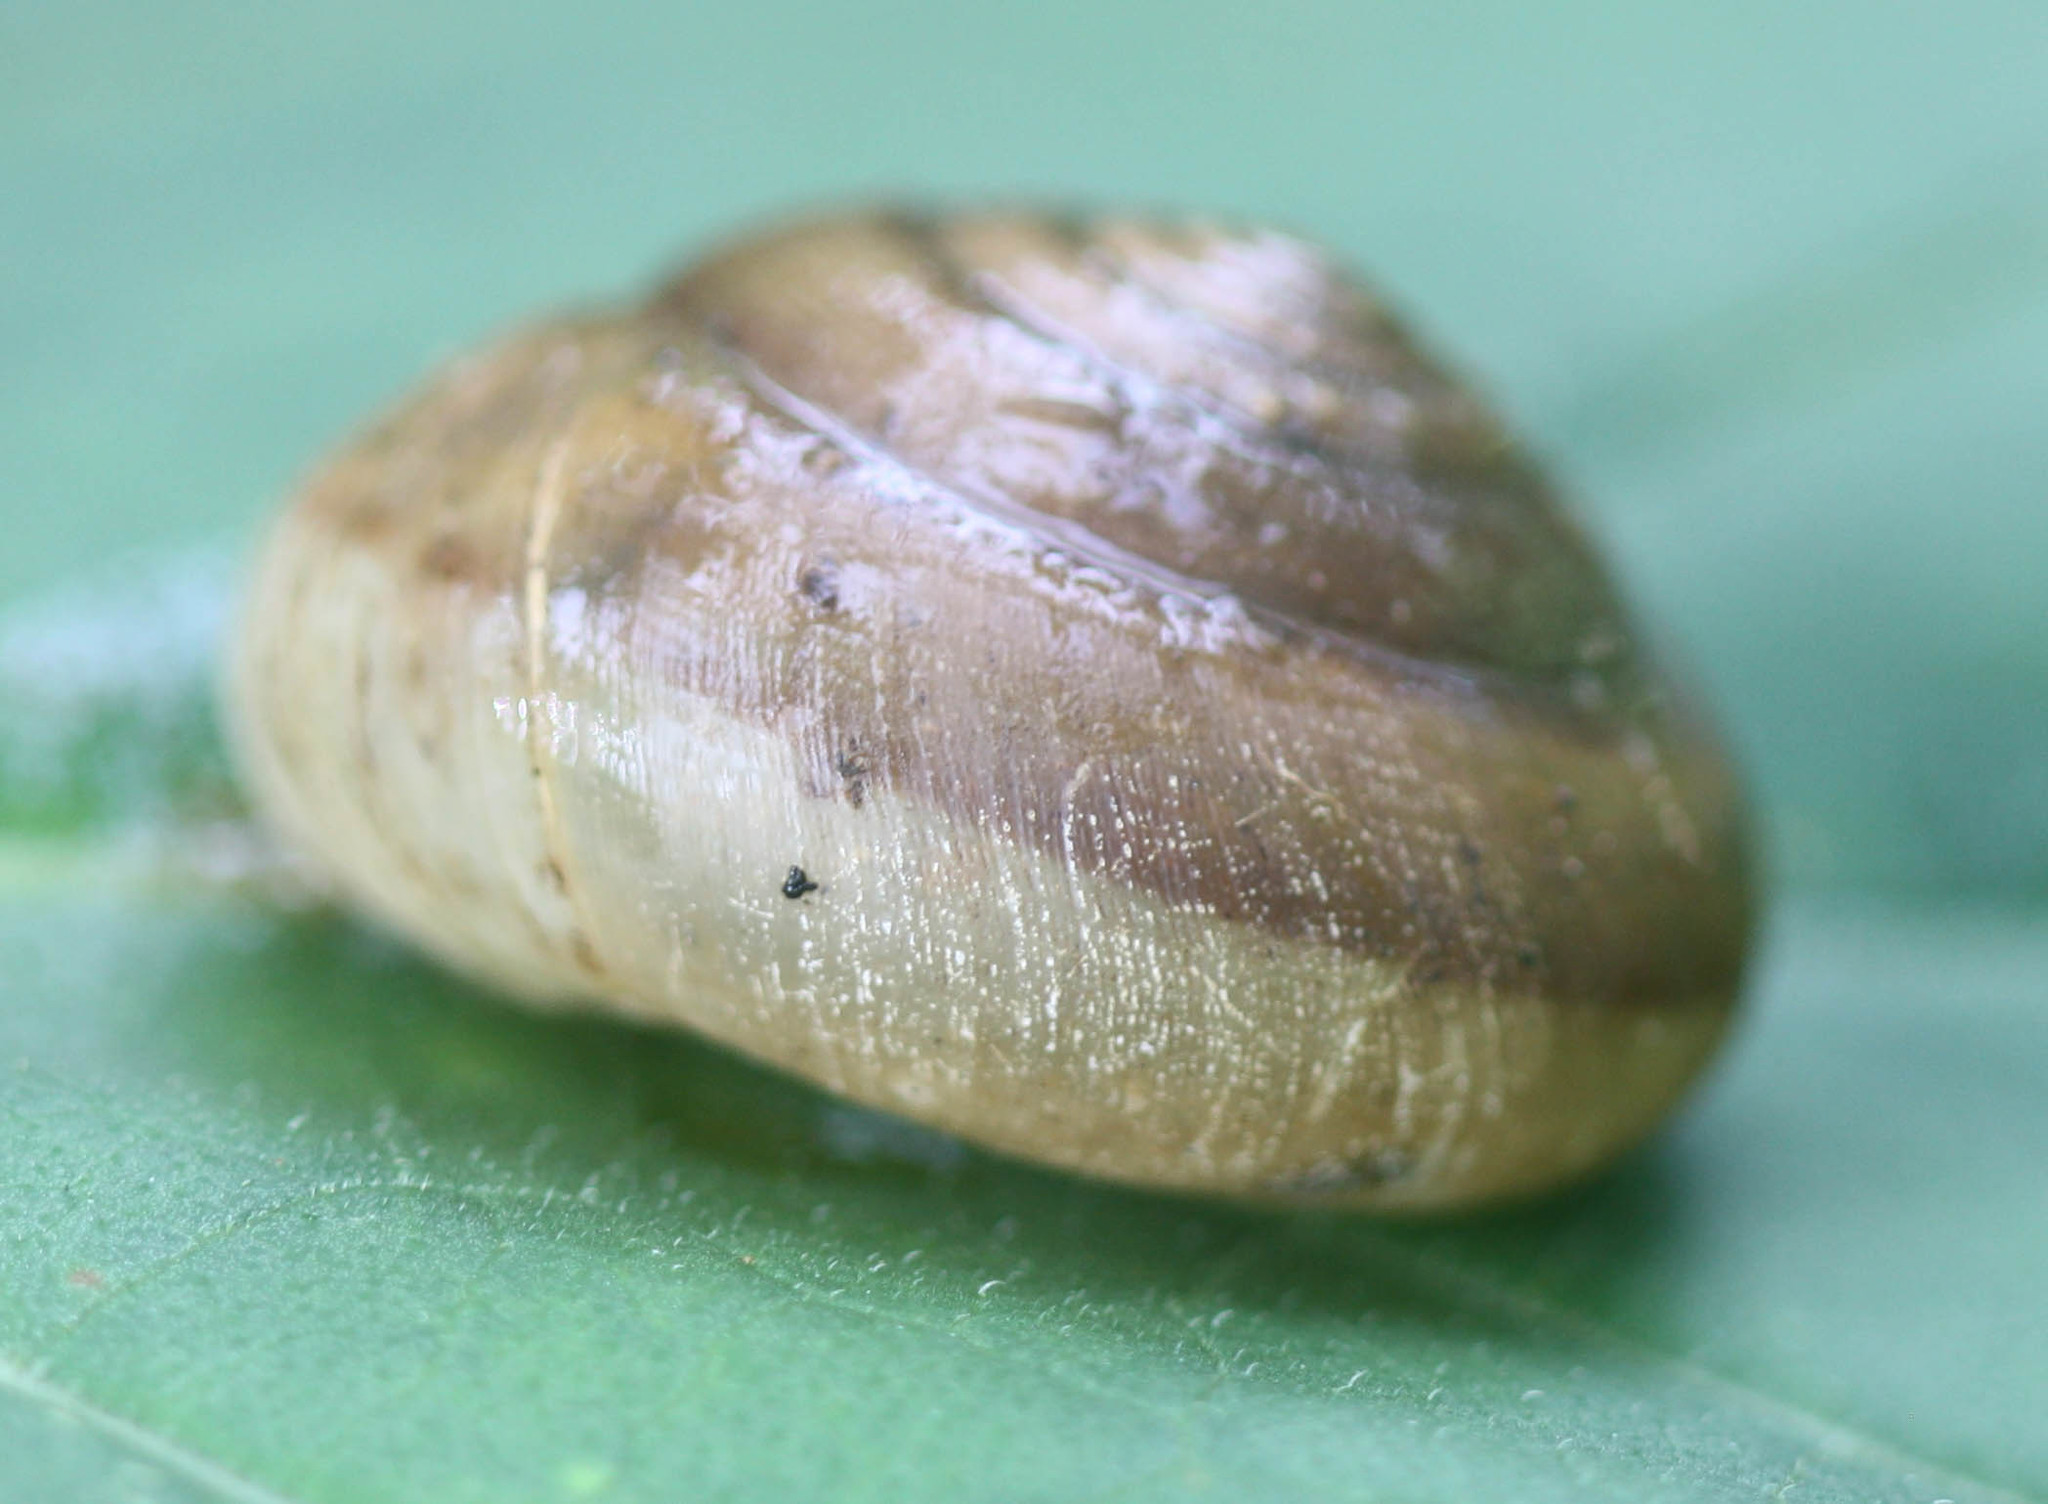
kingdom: Animalia
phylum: Mollusca
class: Gastropoda
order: Stylommatophora
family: Ariophantidae
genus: Sarika
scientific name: Sarika siamensis
